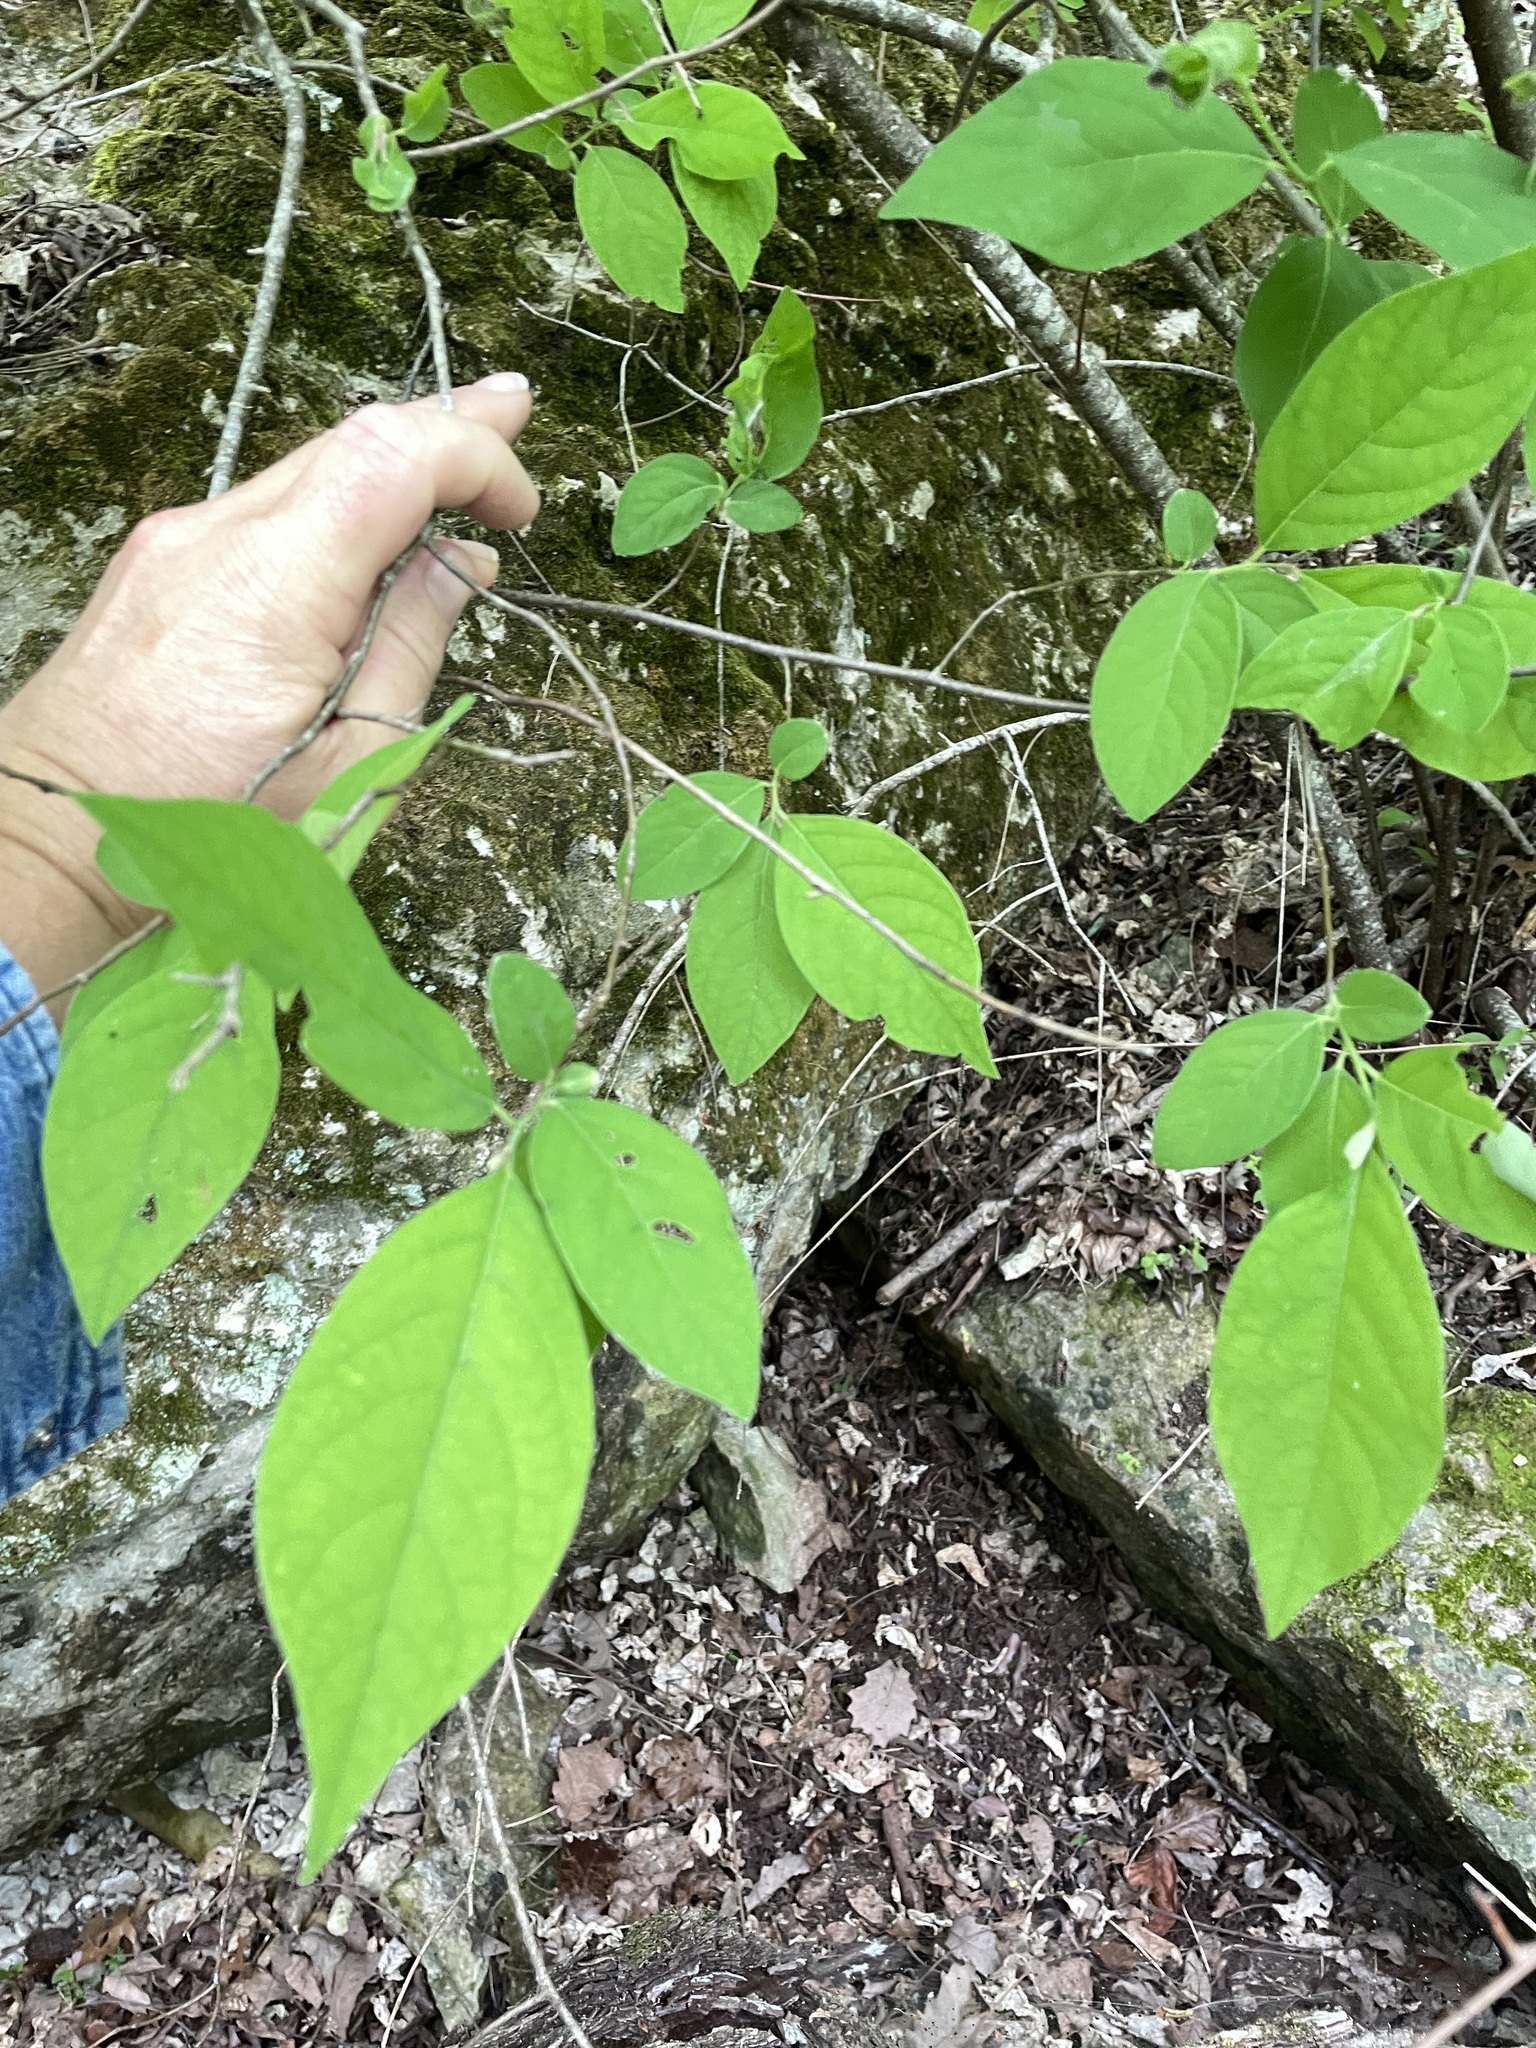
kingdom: Plantae
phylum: Tracheophyta
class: Magnoliopsida
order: Laurales
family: Lauraceae
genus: Lindera
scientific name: Lindera benzoin
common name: Spicebush
